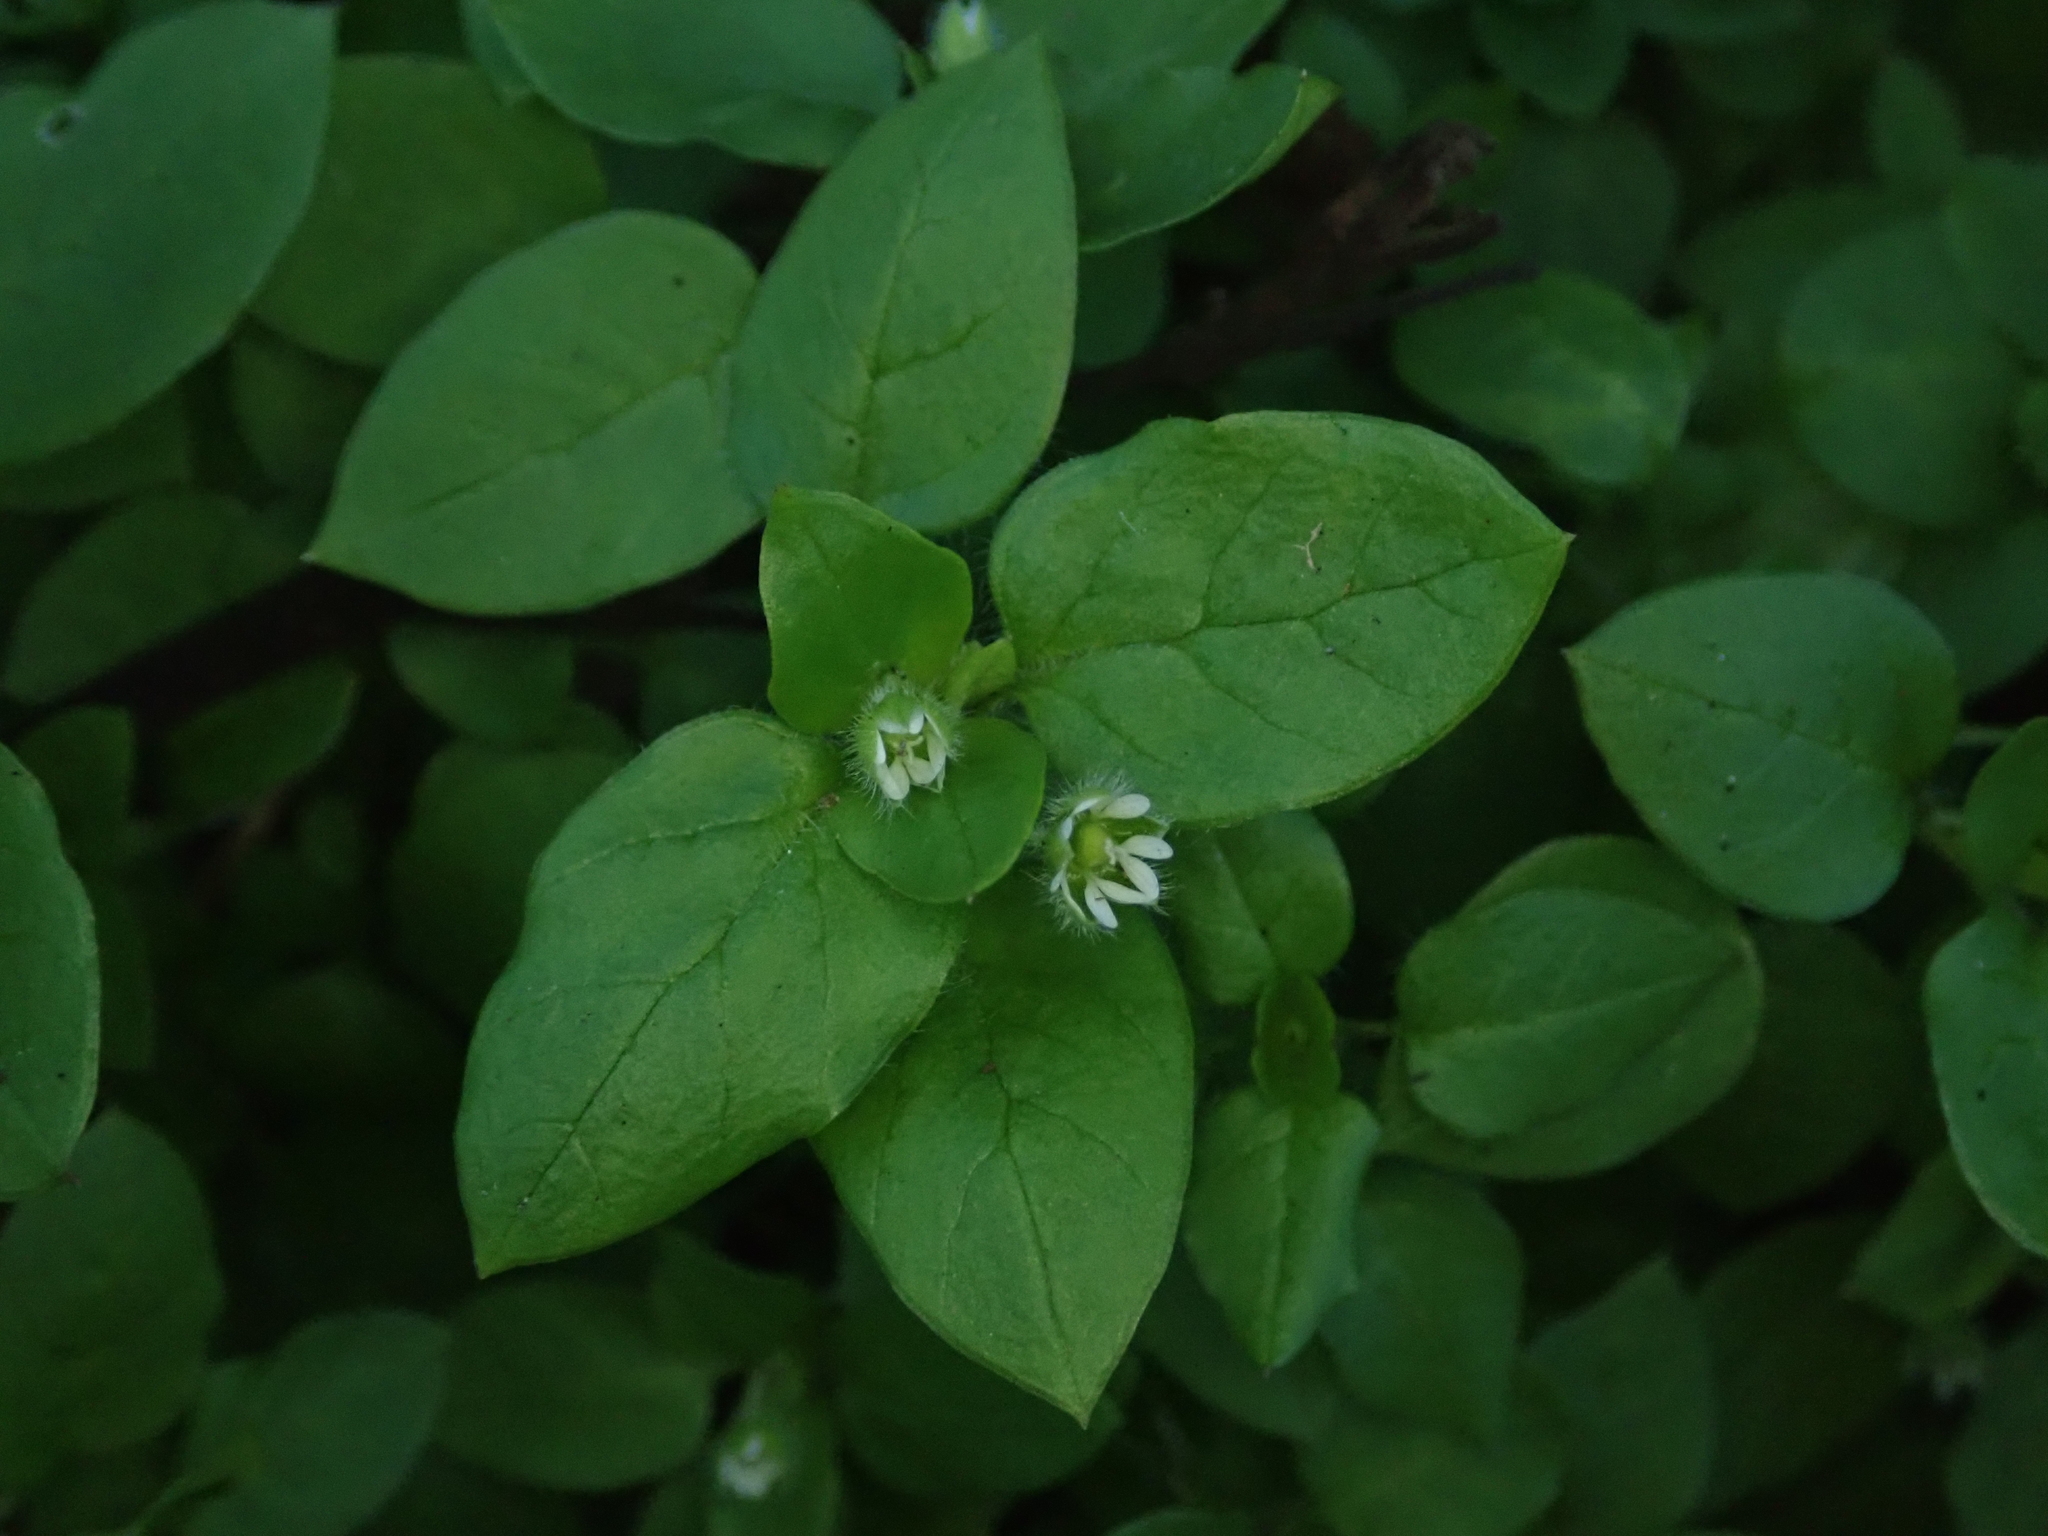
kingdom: Plantae
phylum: Tracheophyta
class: Magnoliopsida
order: Caryophyllales
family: Caryophyllaceae
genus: Stellaria
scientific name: Stellaria media
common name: Common chickweed
